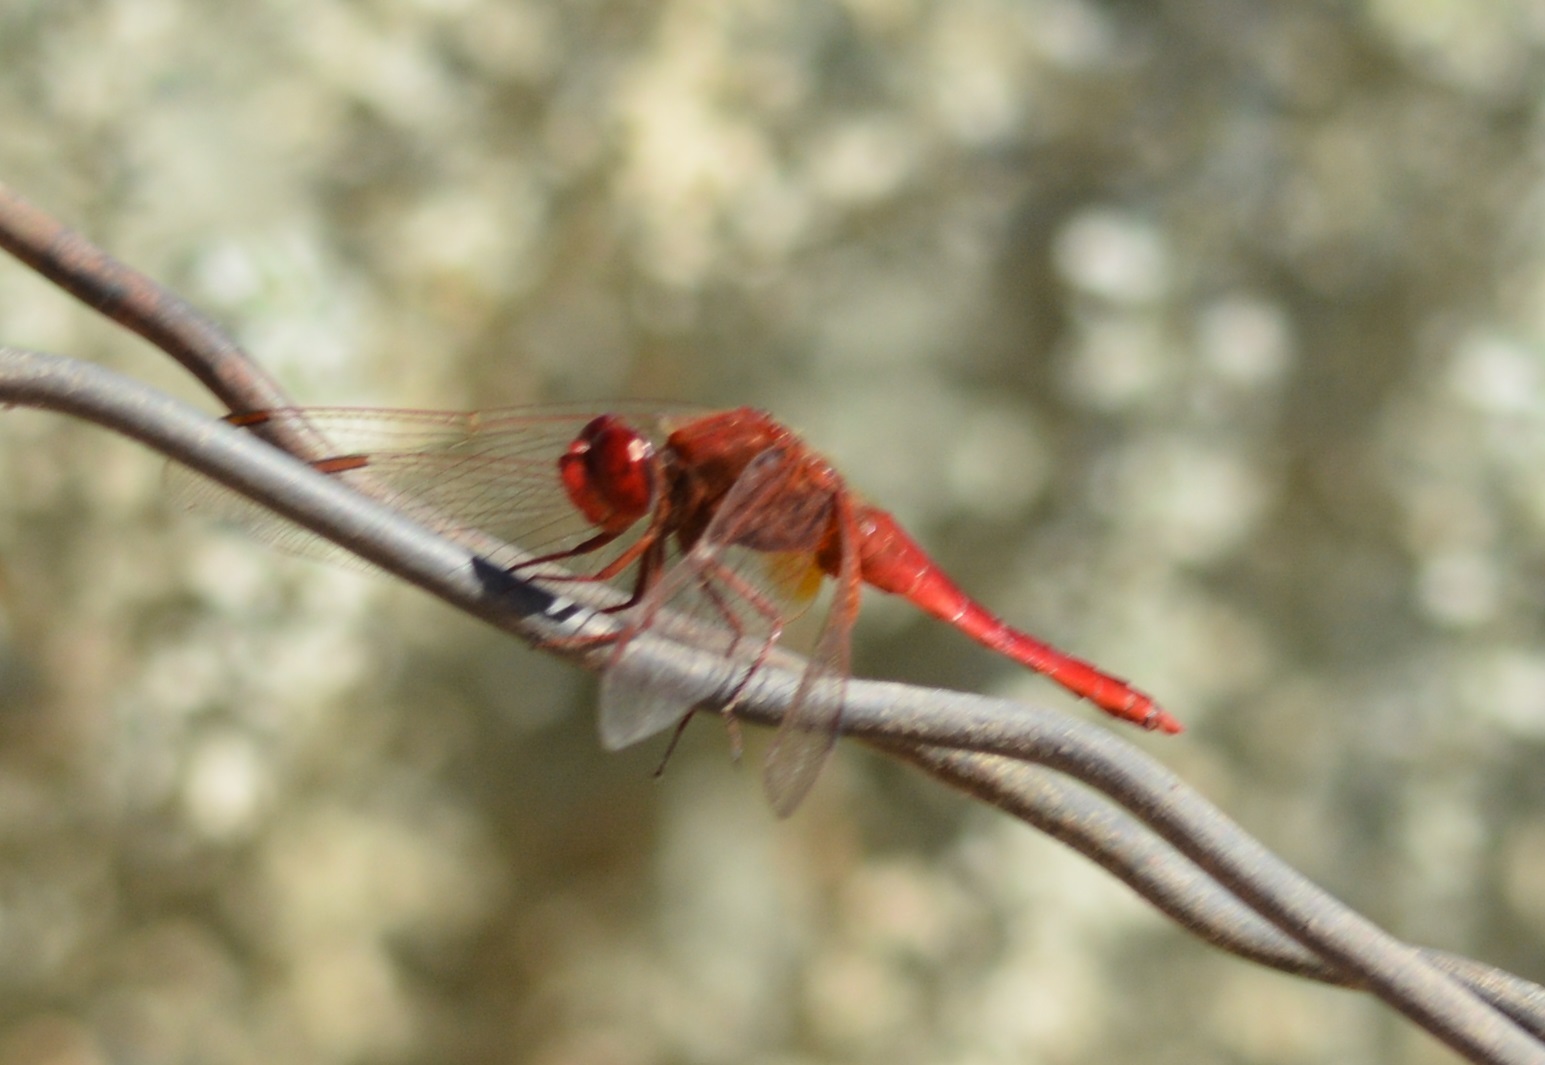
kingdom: Animalia
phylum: Arthropoda
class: Insecta
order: Odonata
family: Libellulidae
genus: Crocothemis
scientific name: Crocothemis erythraea
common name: Scarlet dragonfly
